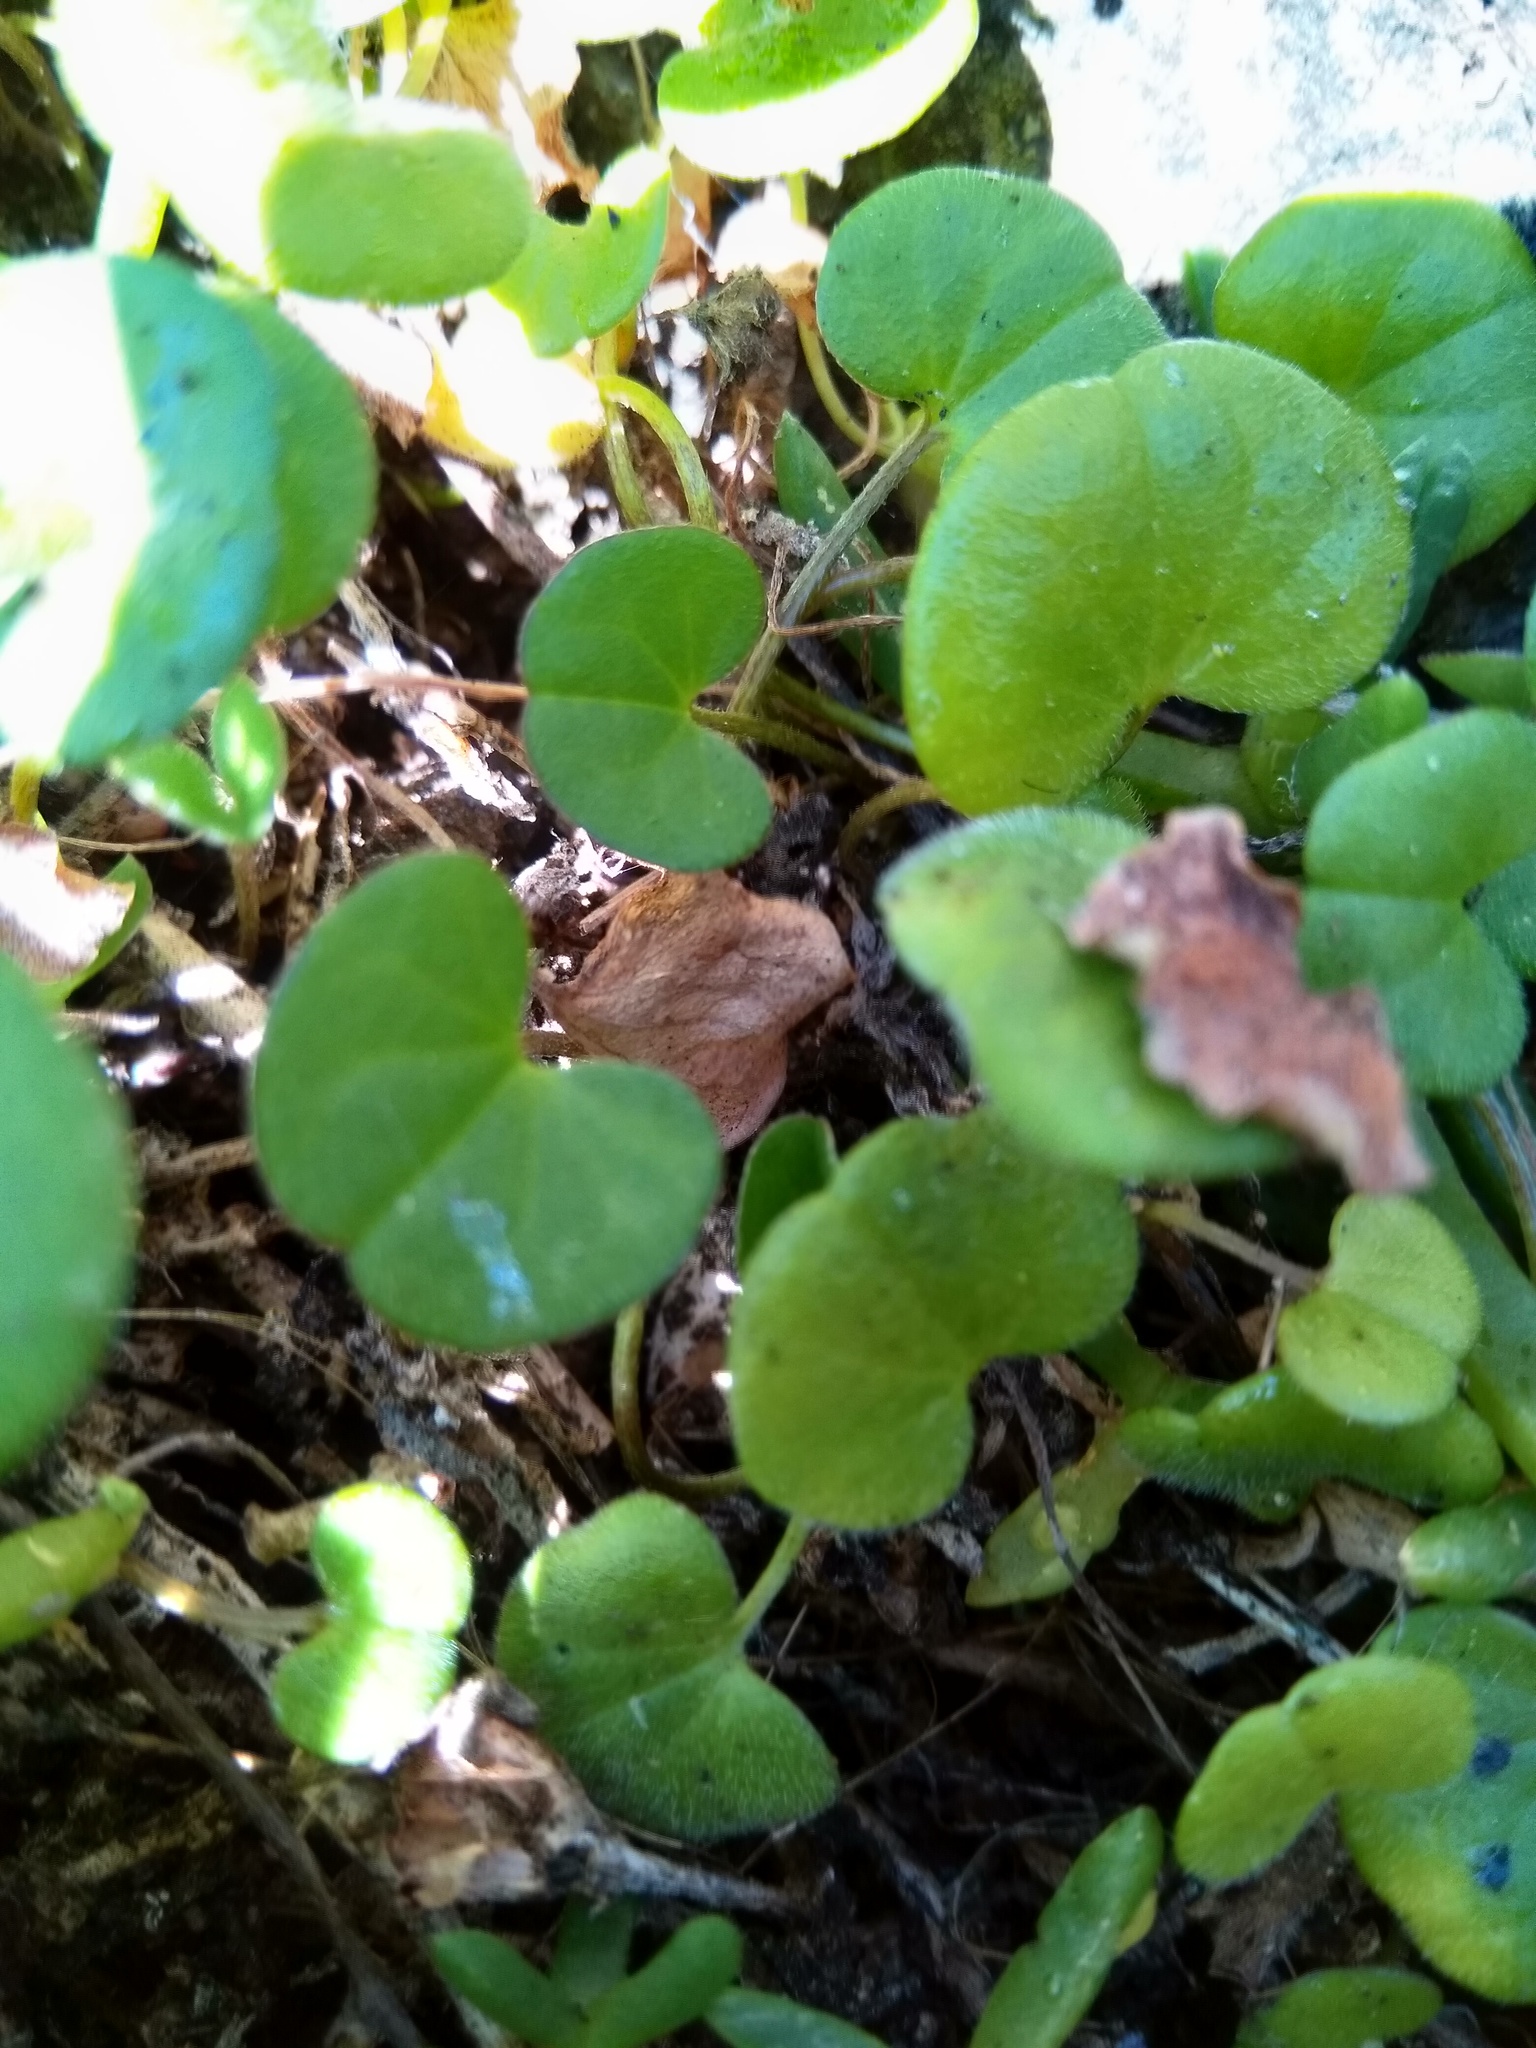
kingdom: Plantae
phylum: Tracheophyta
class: Magnoliopsida
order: Solanales
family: Convolvulaceae
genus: Dichondra
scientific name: Dichondra repens
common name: Kidneyweed
